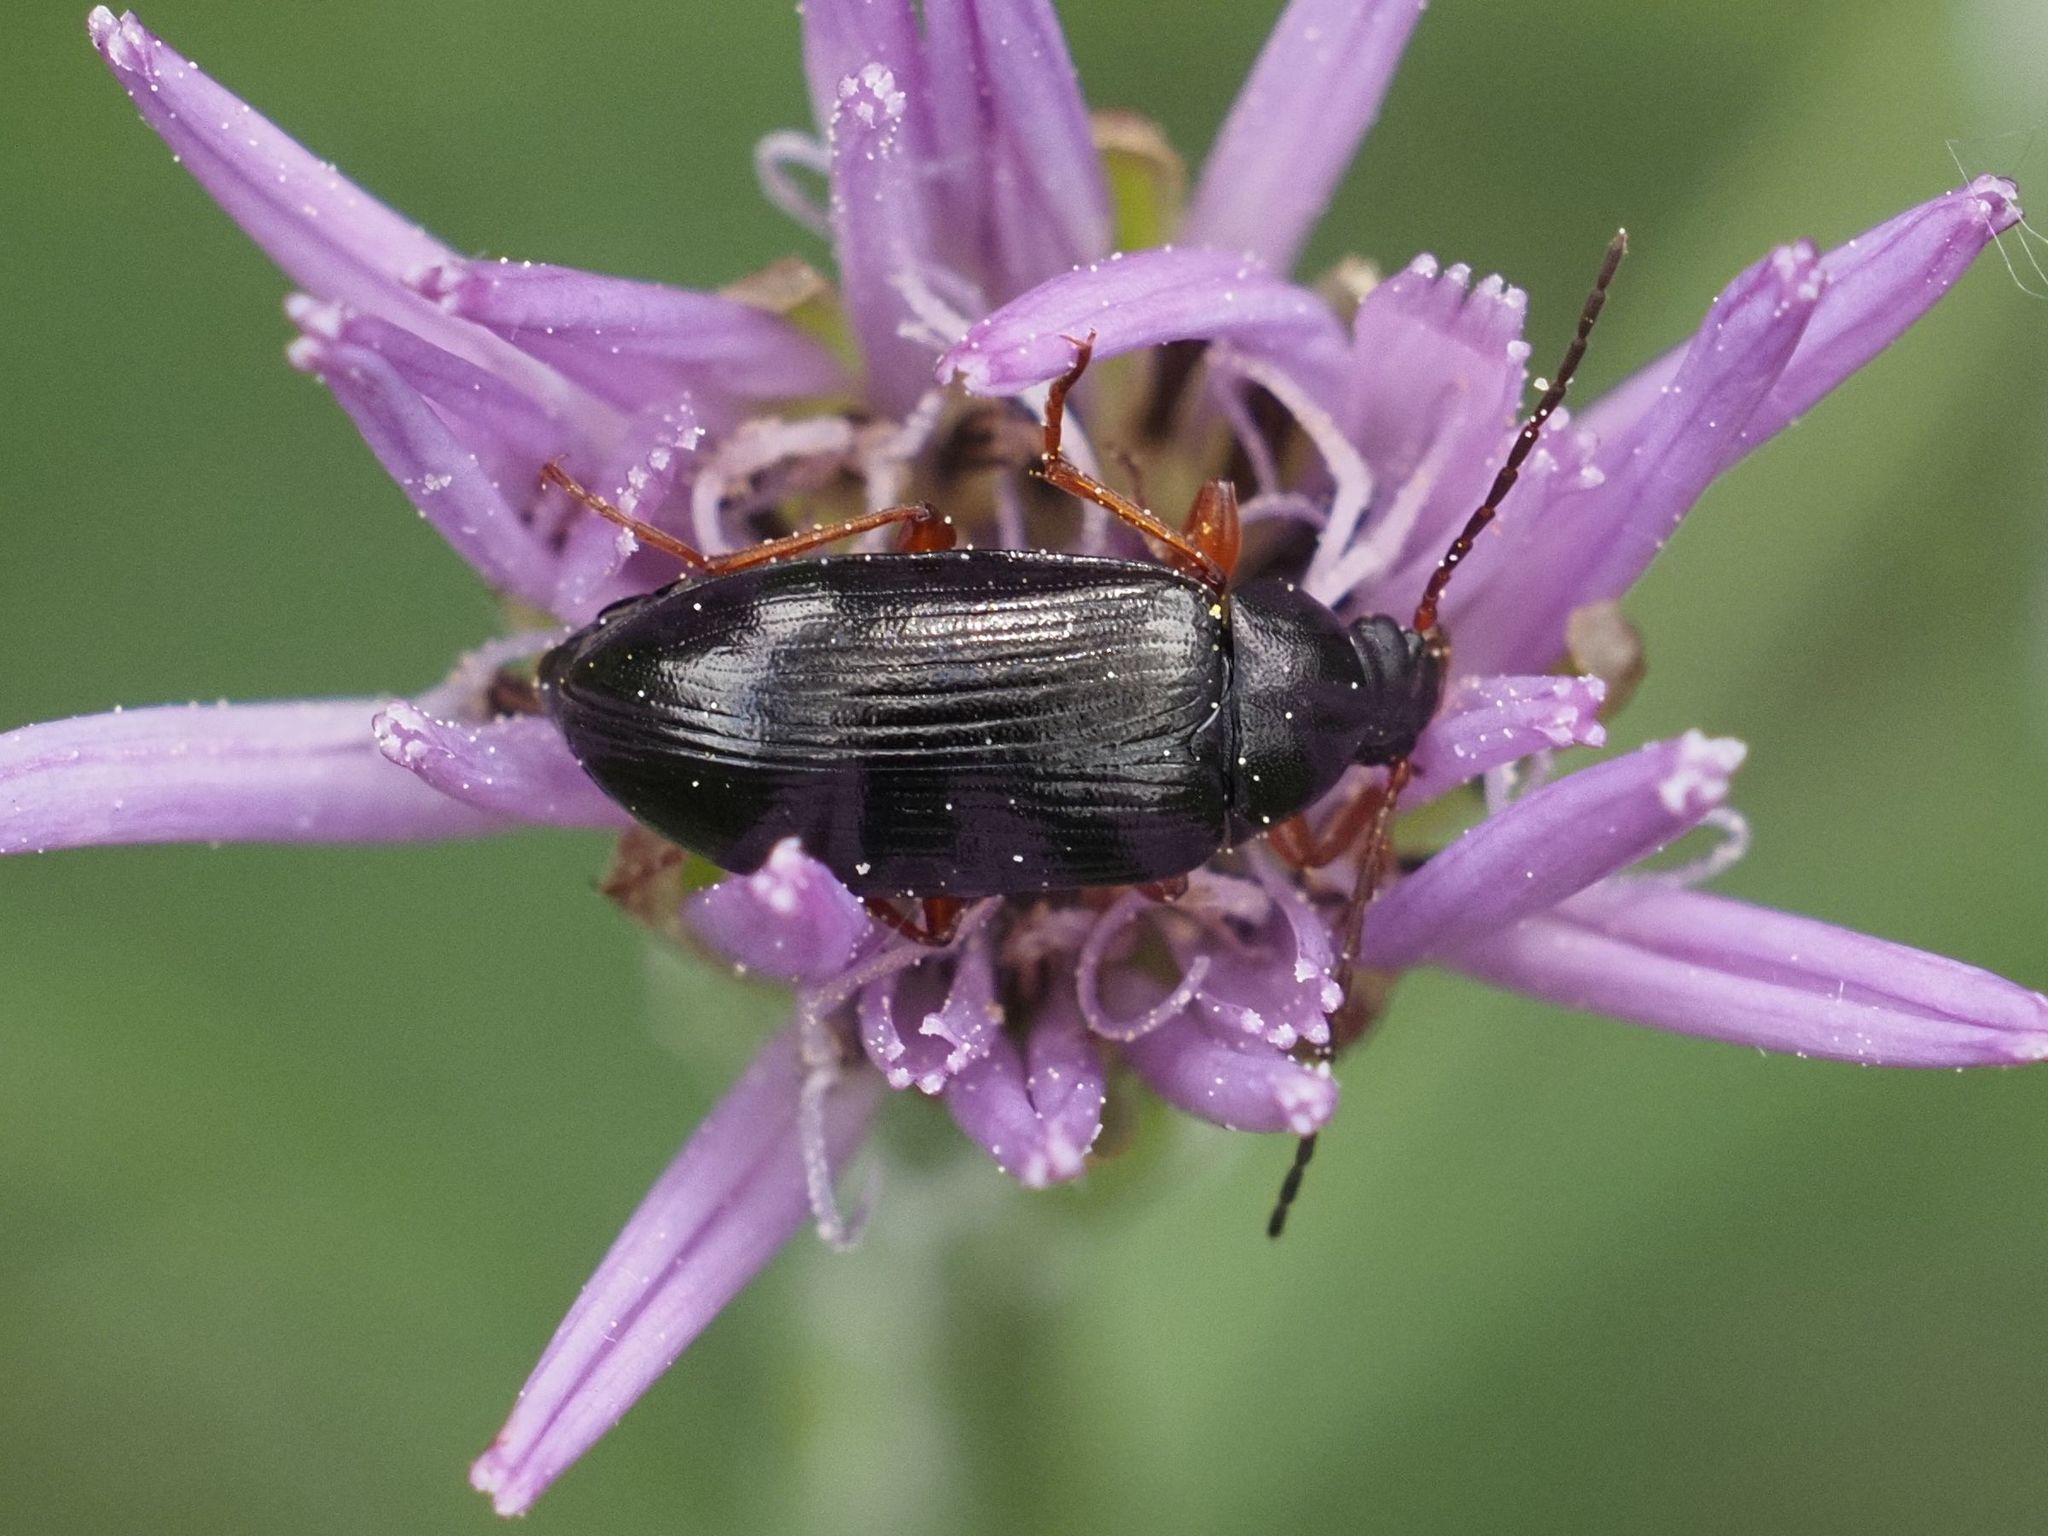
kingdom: Animalia
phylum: Arthropoda
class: Insecta
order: Coleoptera
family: Tenebrionidae
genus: Gonodera
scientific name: Gonodera luperus
